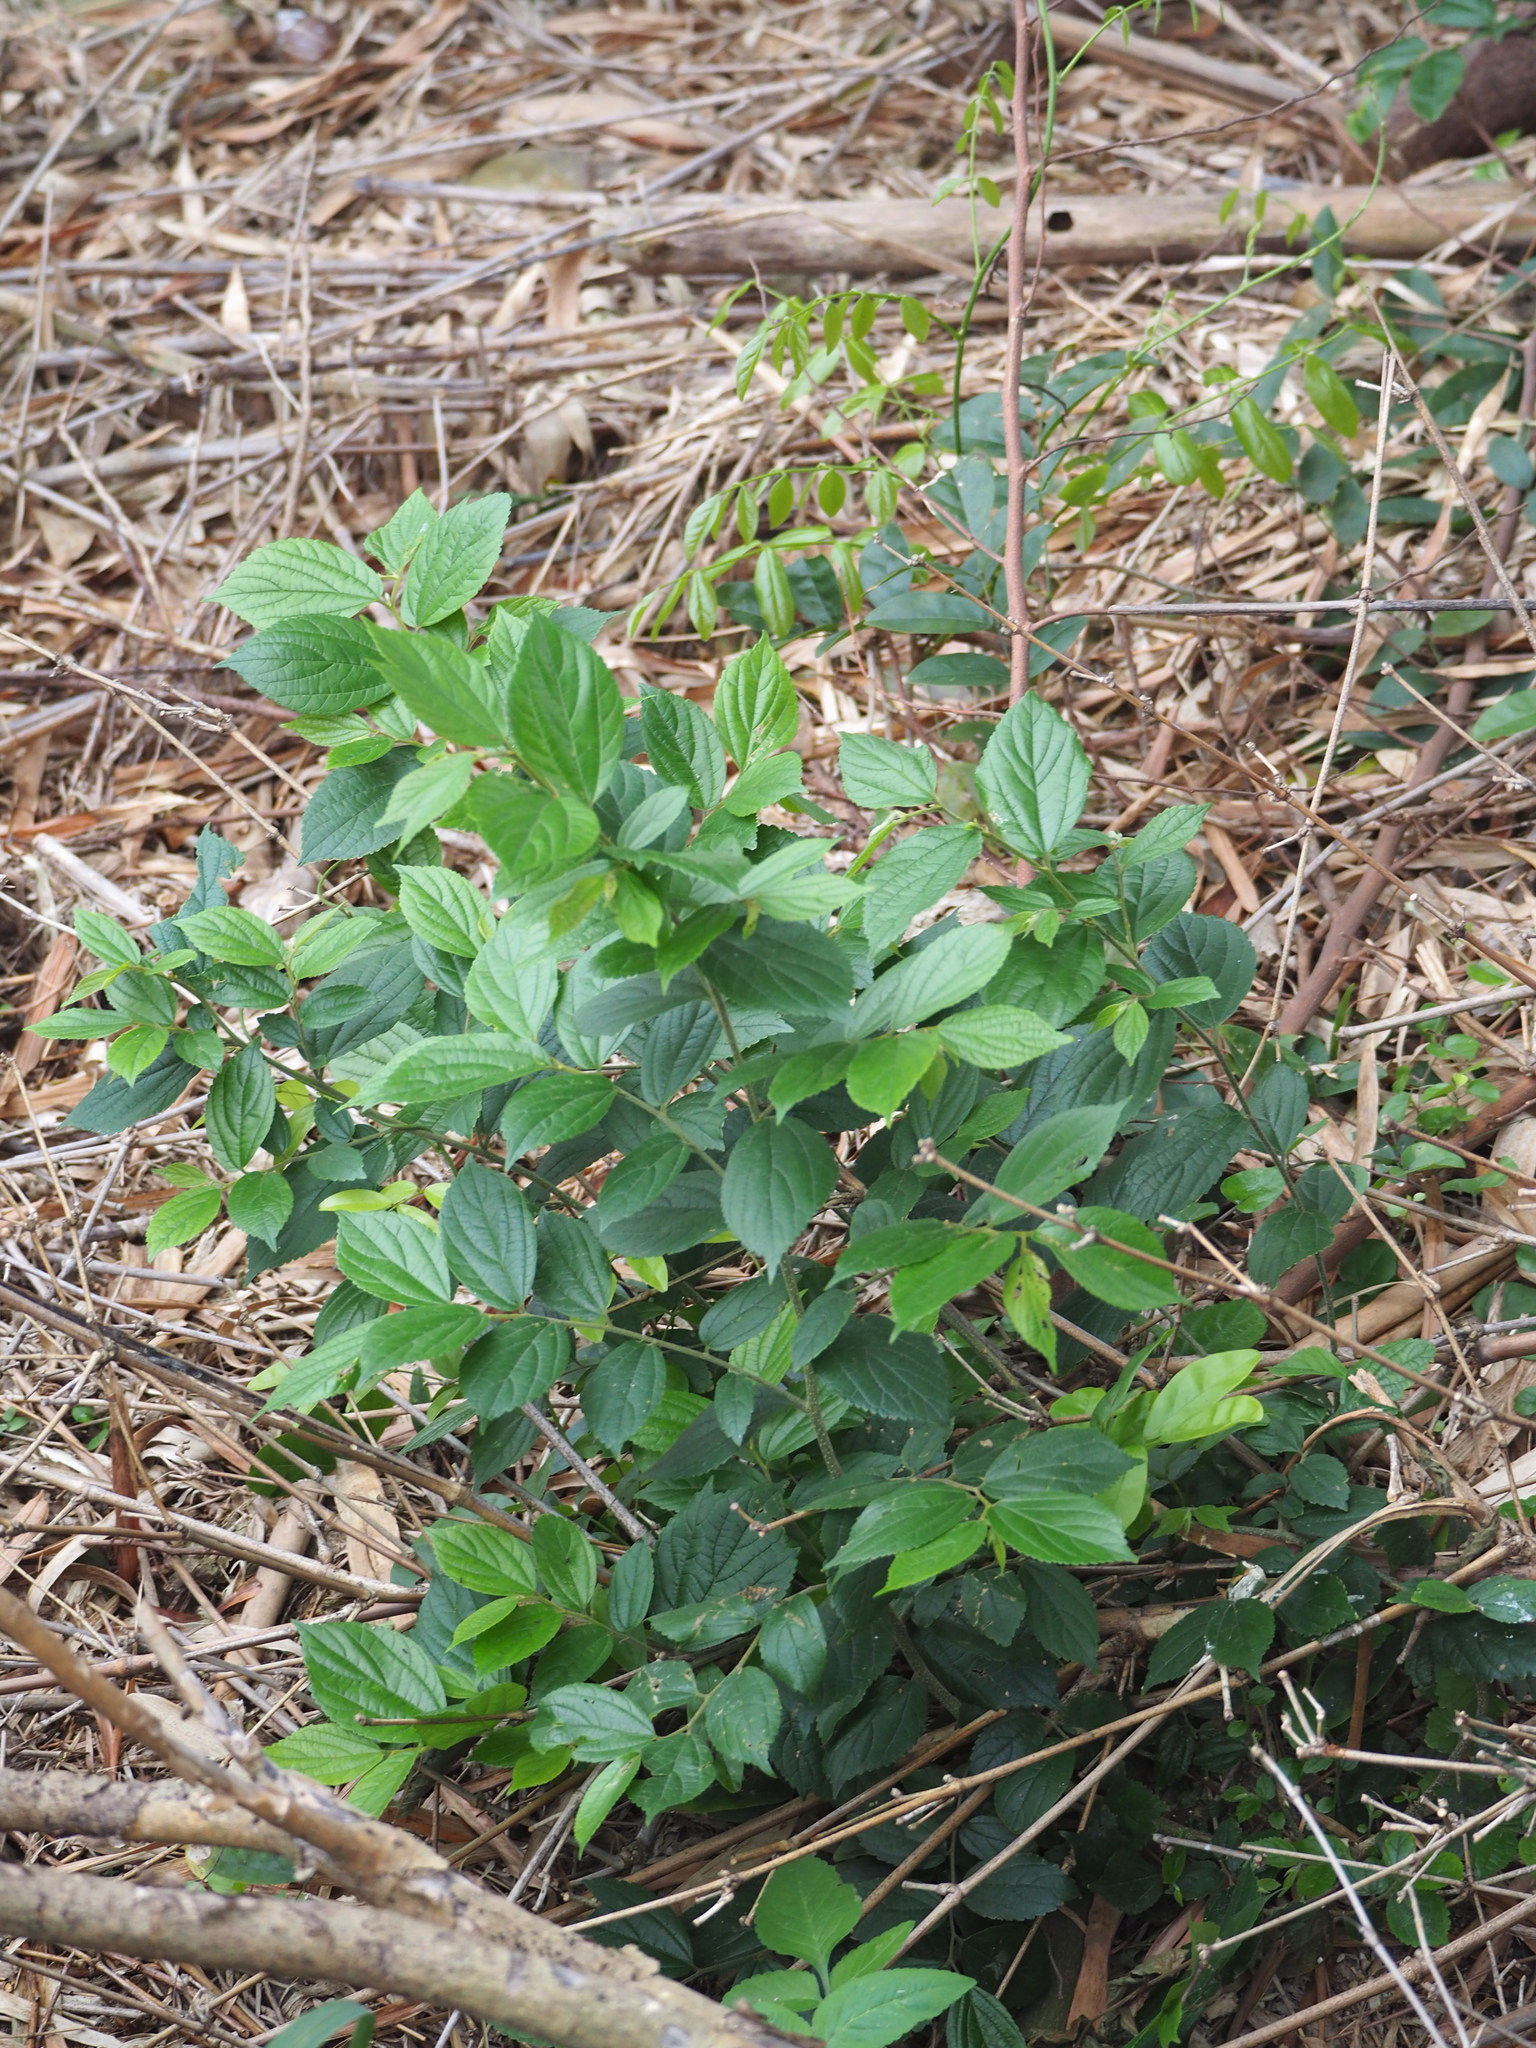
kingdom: Plantae
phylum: Tracheophyta
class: Magnoliopsida
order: Rosales
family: Cannabaceae
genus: Celtis
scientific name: Celtis sinensis
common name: Chinese hackberry
